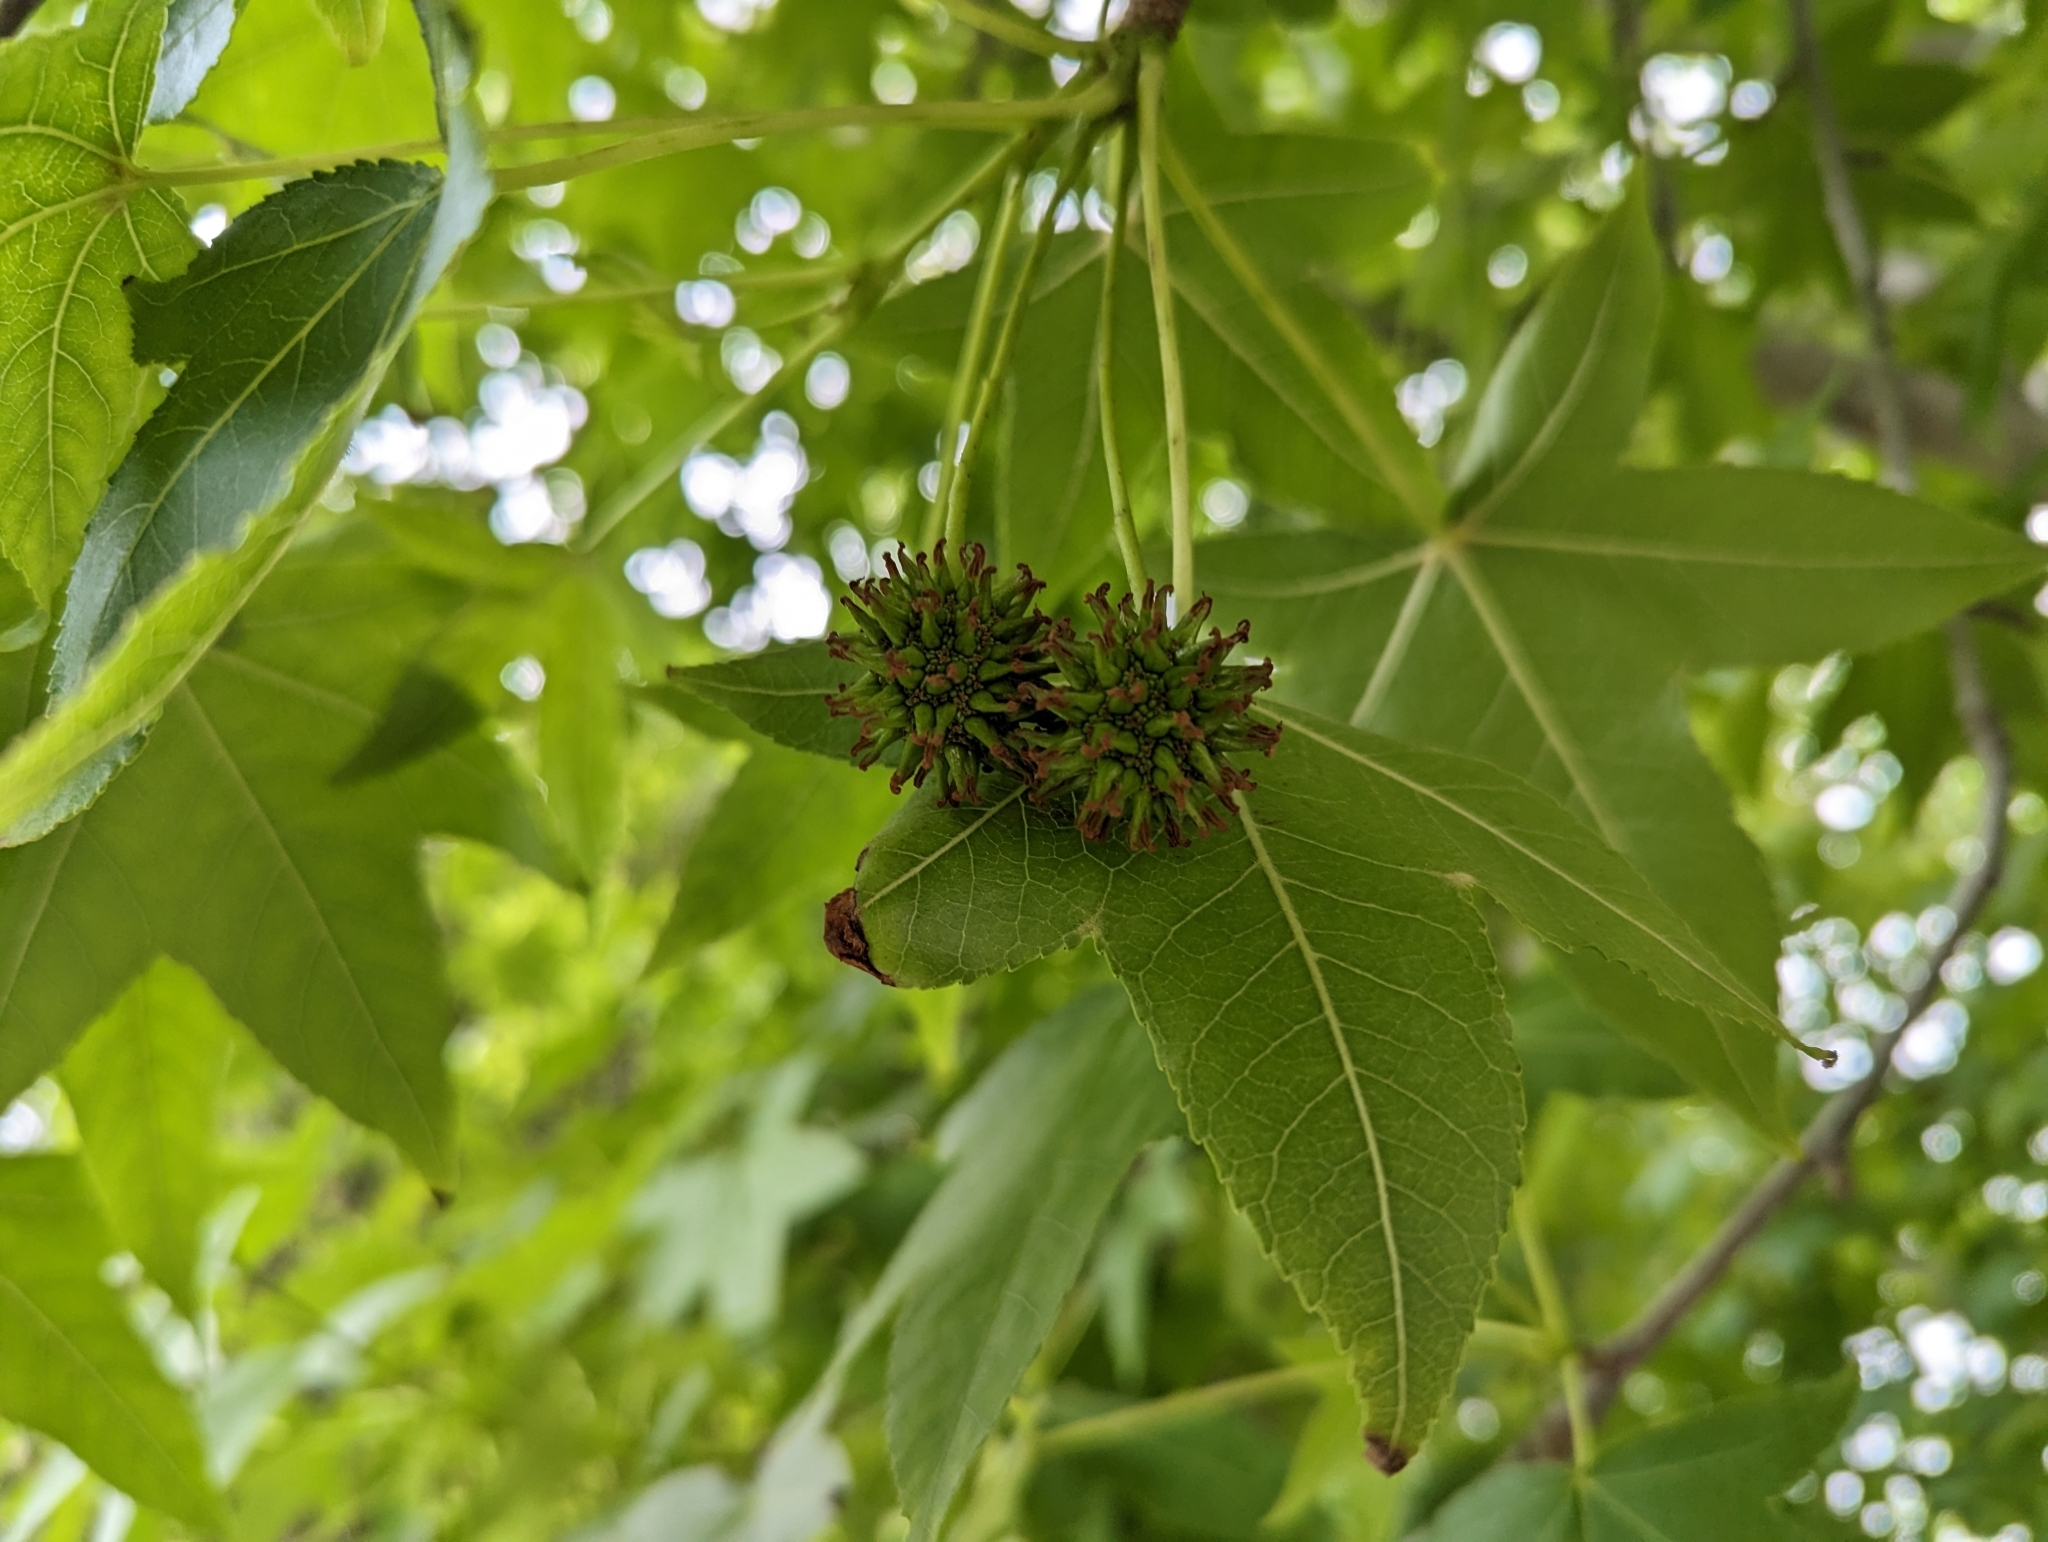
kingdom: Plantae
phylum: Tracheophyta
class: Magnoliopsida
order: Proteales
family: Platanaceae
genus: Platanus
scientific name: Platanus racemosa
